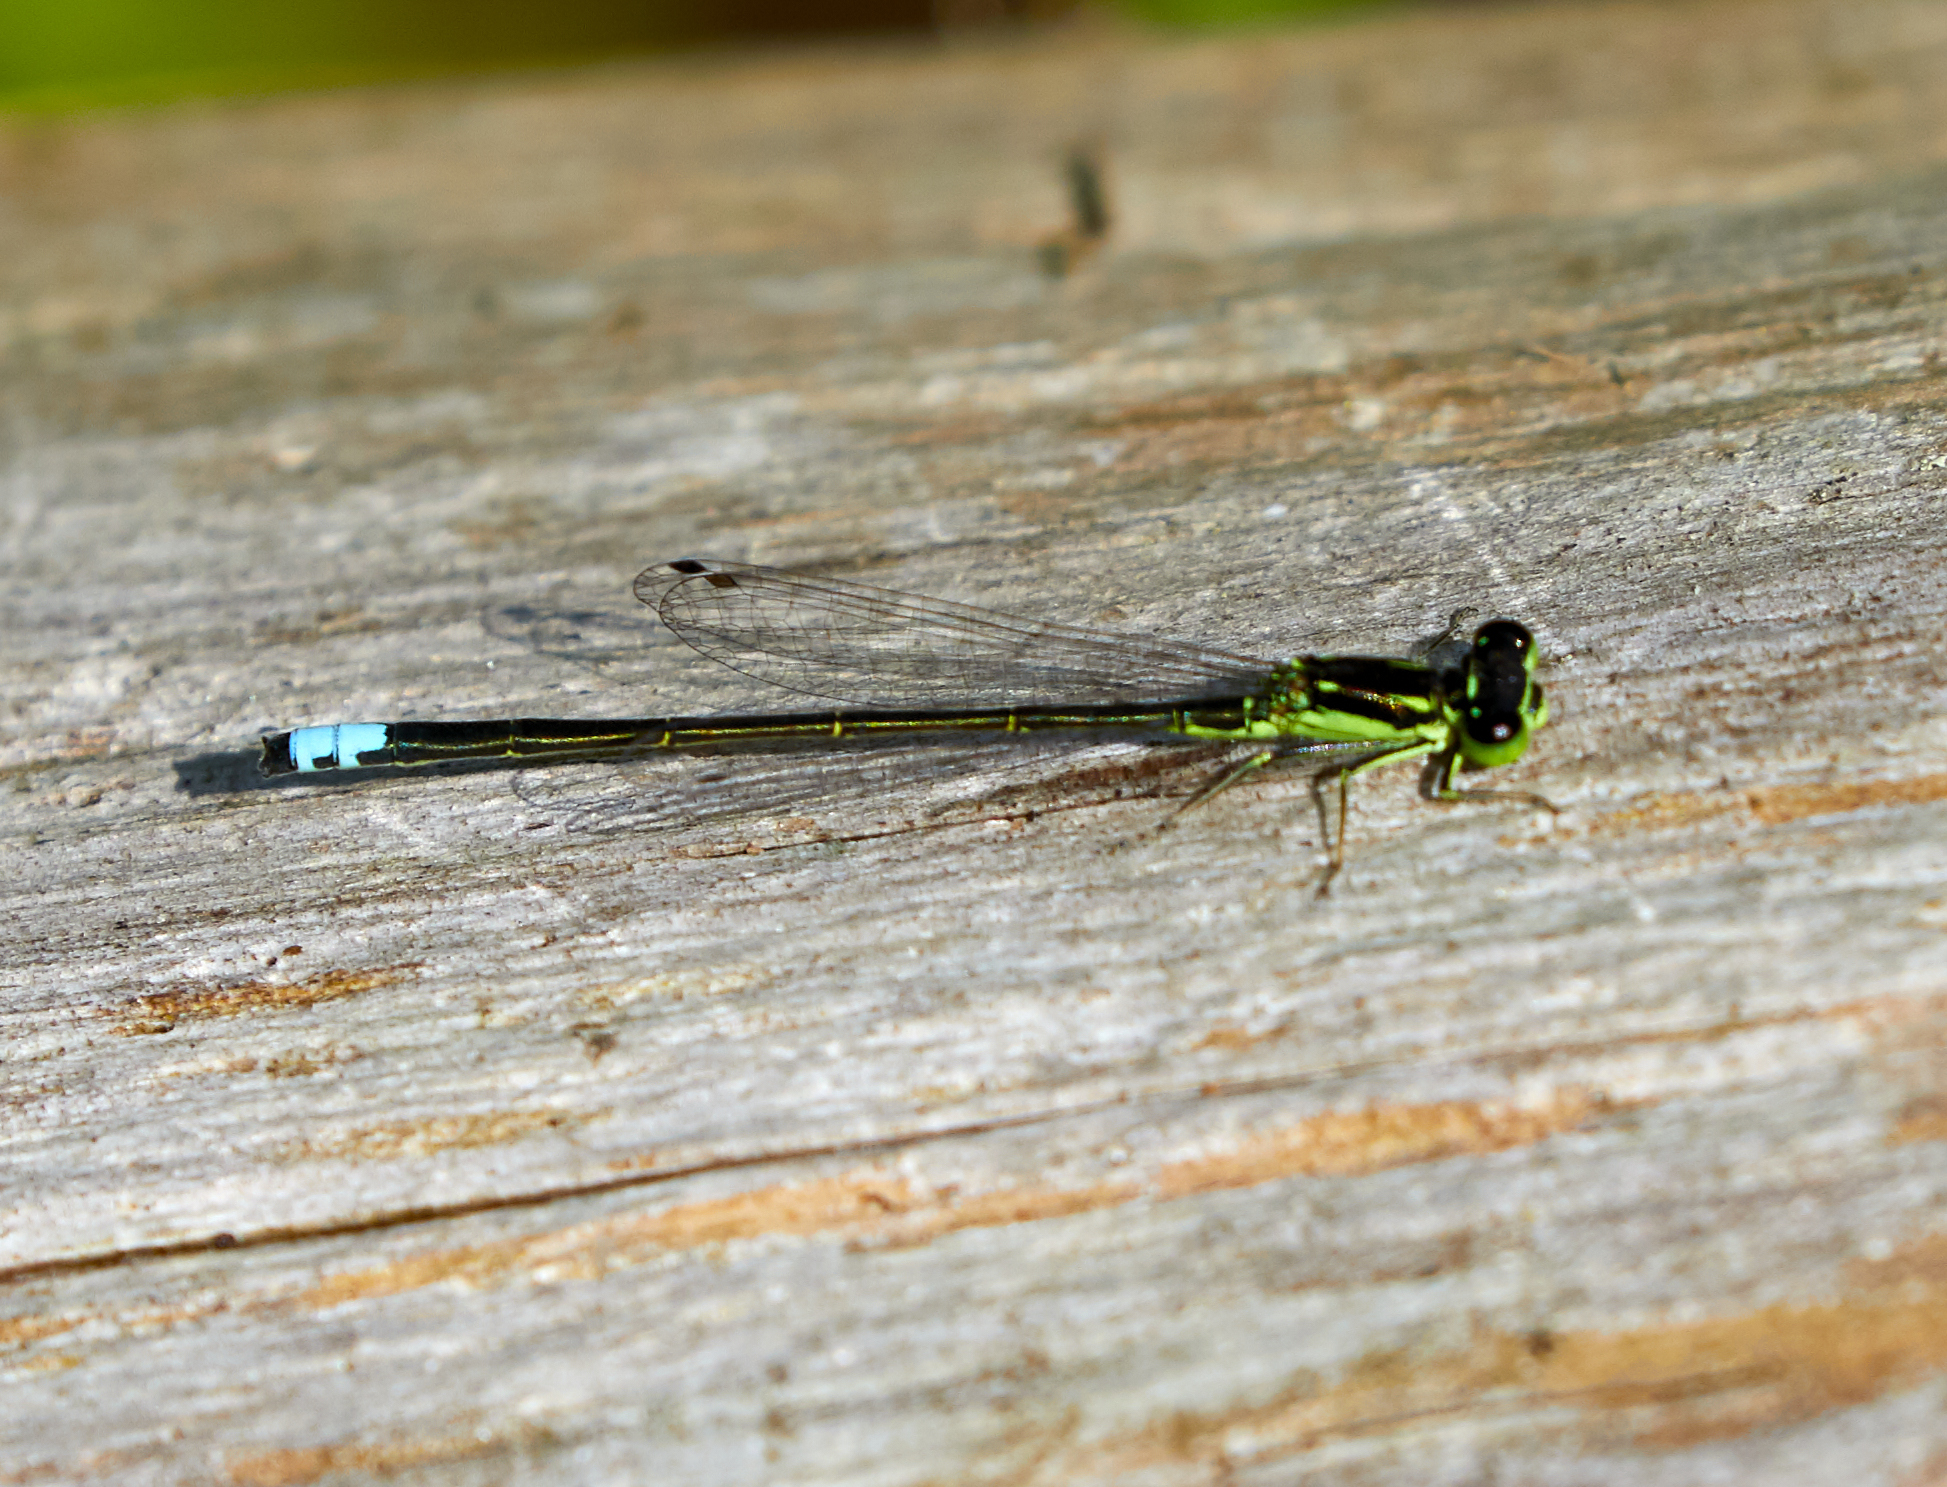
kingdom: Animalia
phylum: Arthropoda
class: Insecta
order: Odonata
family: Coenagrionidae
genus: Ischnura
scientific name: Ischnura verticalis
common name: Eastern forktail
